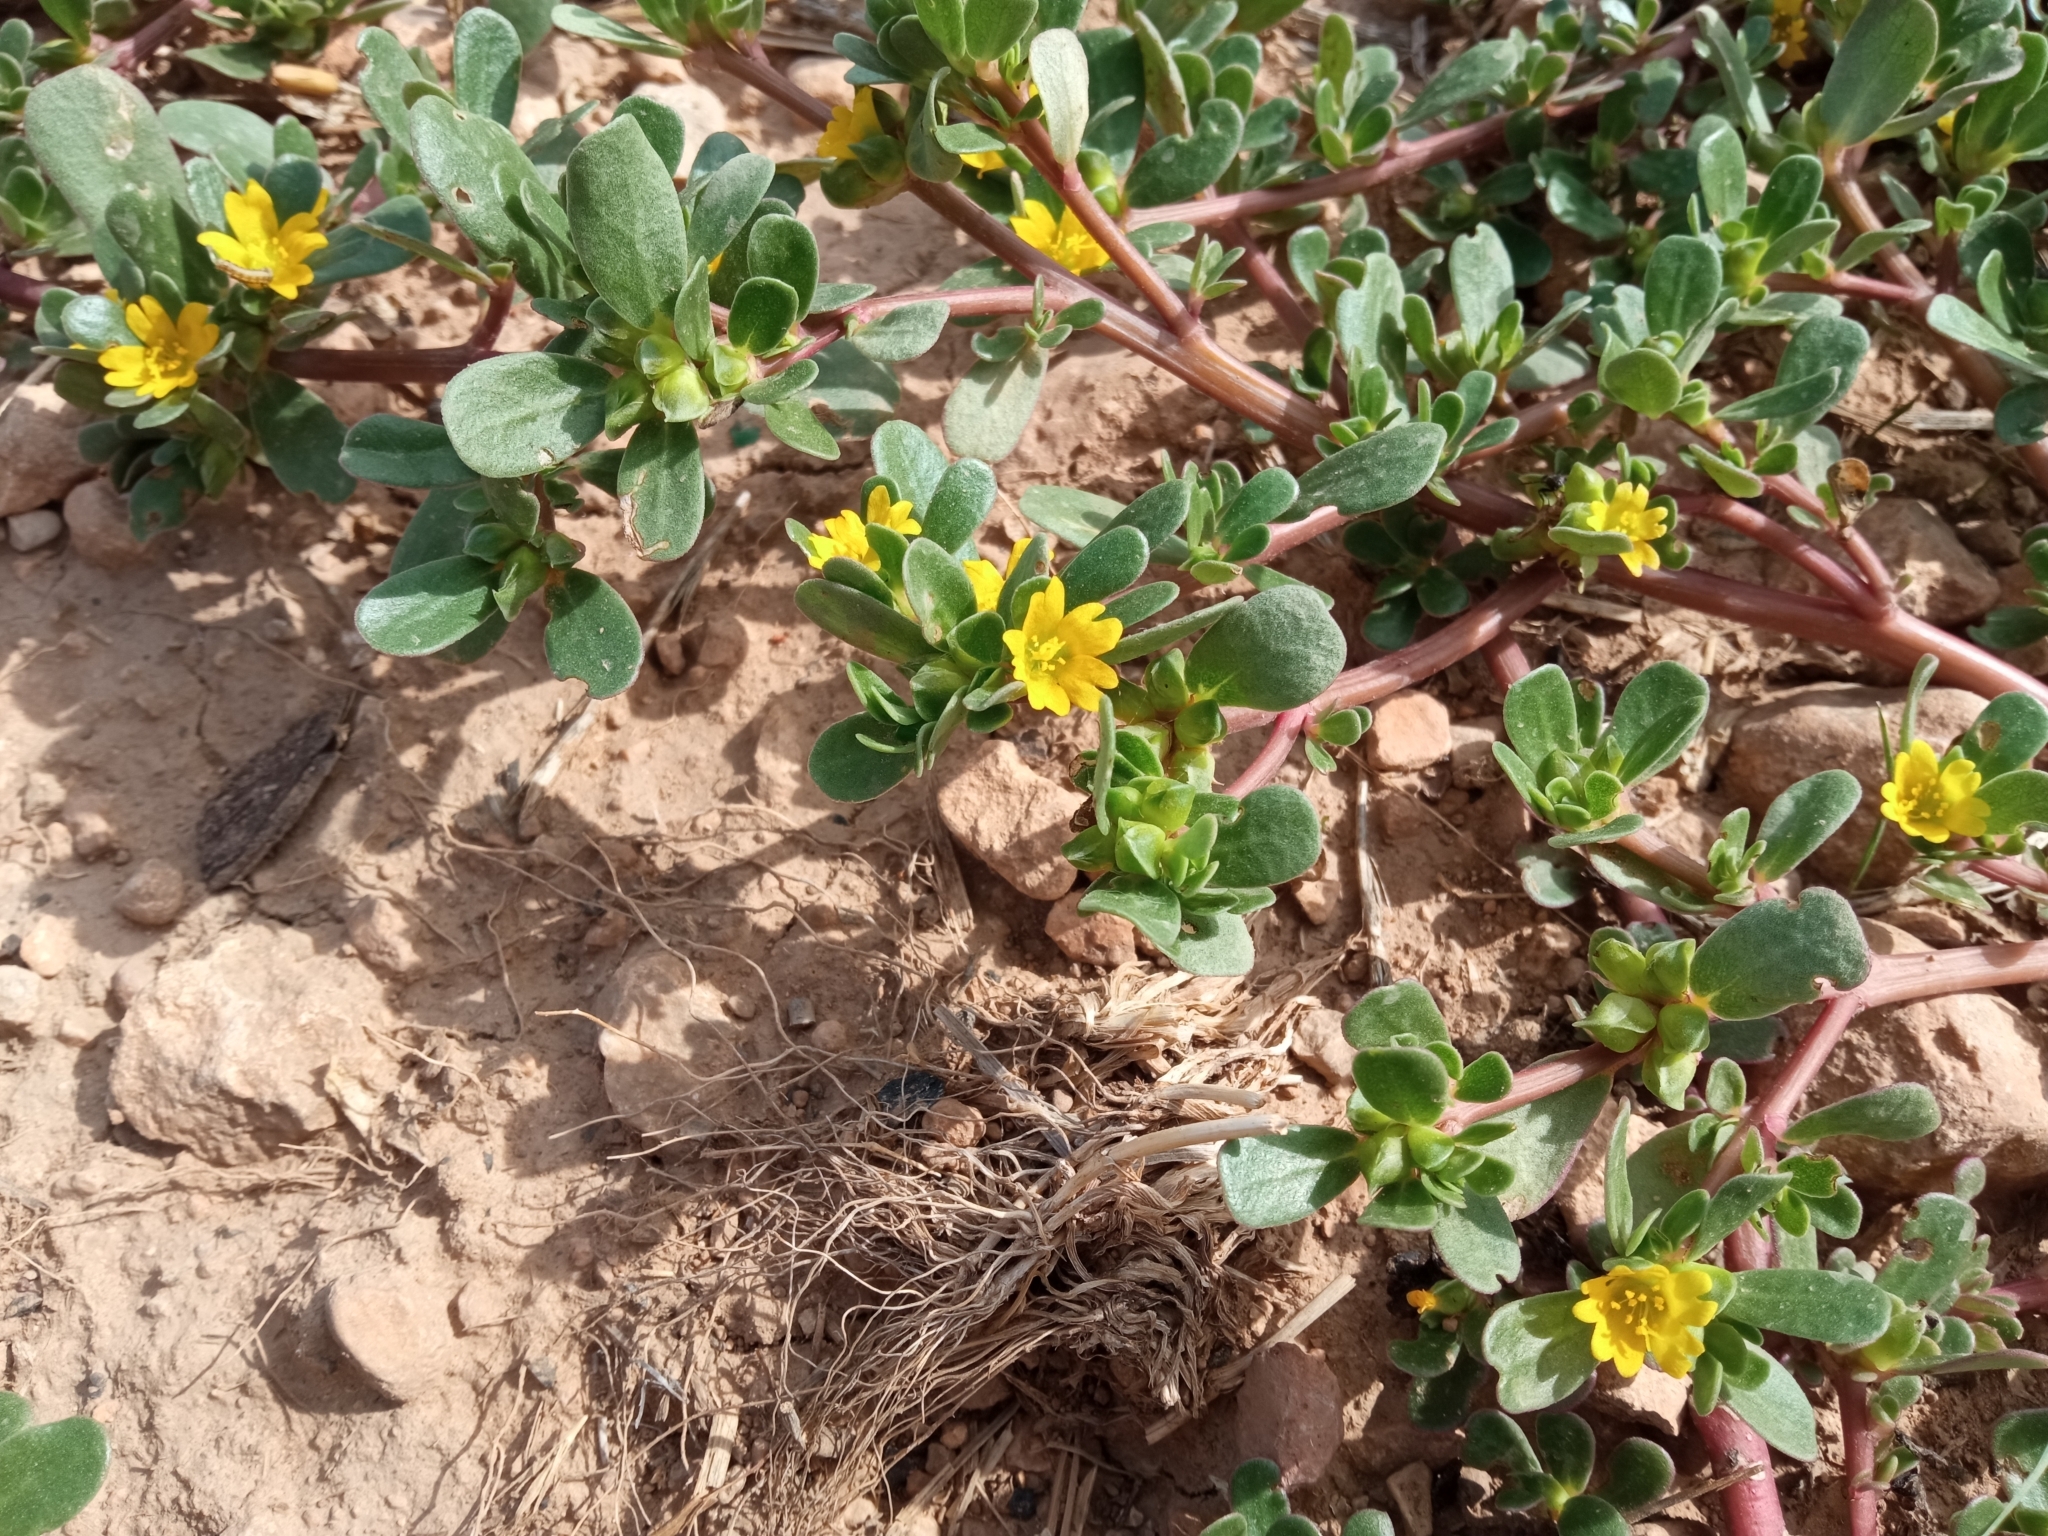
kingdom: Plantae
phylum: Tracheophyta
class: Magnoliopsida
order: Caryophyllales
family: Portulacaceae
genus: Portulaca
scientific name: Portulaca oleracea
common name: Common purslane
